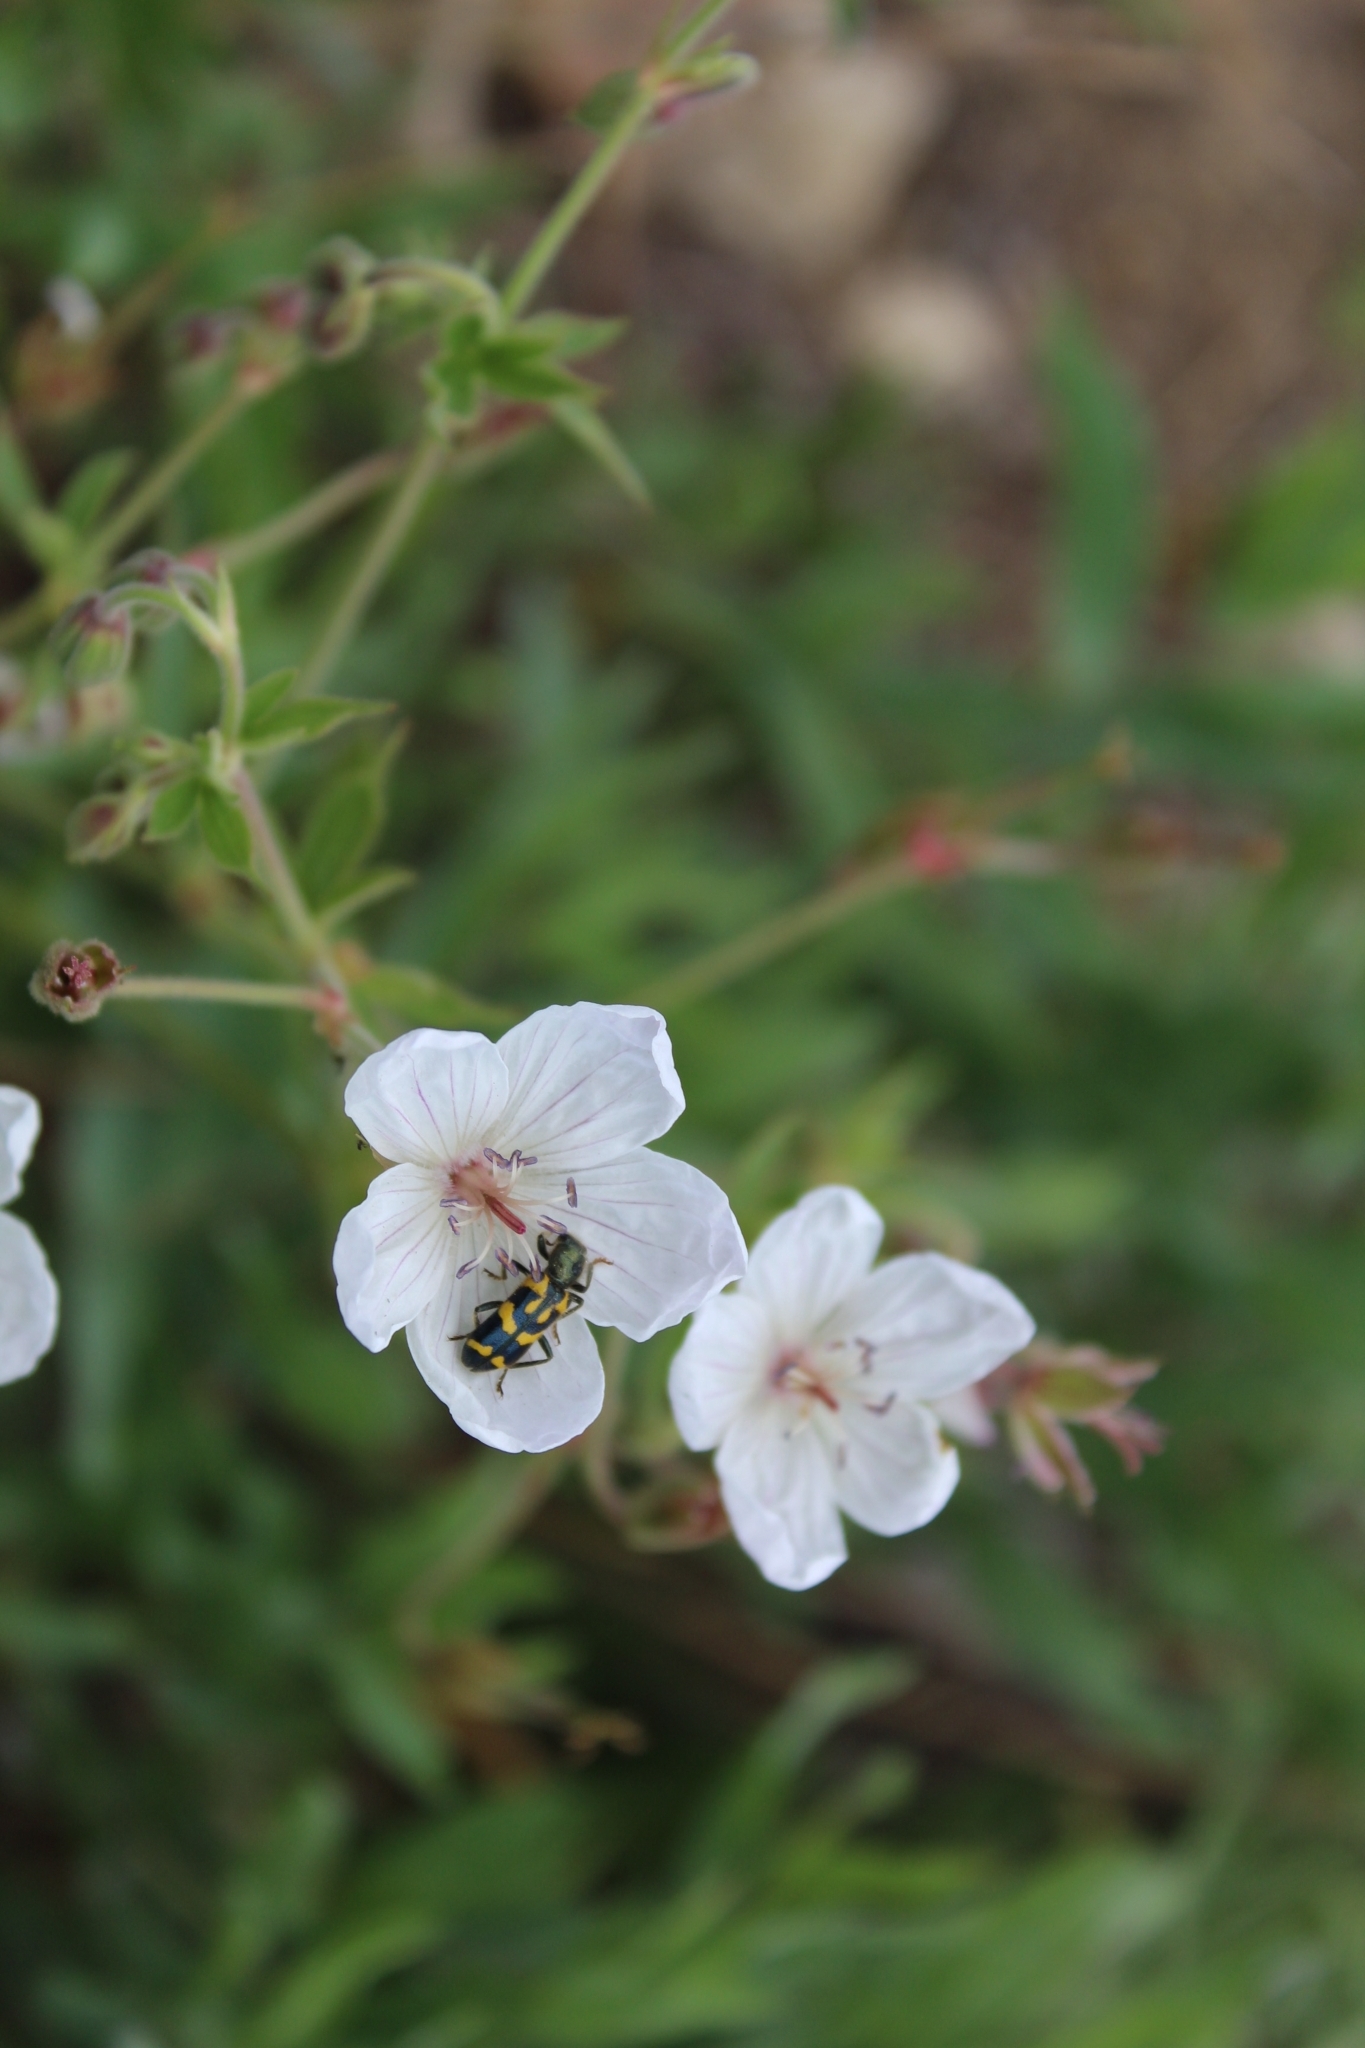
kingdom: Animalia
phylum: Arthropoda
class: Insecta
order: Coleoptera
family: Cleridae
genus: Trichodes
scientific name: Trichodes ornatus
